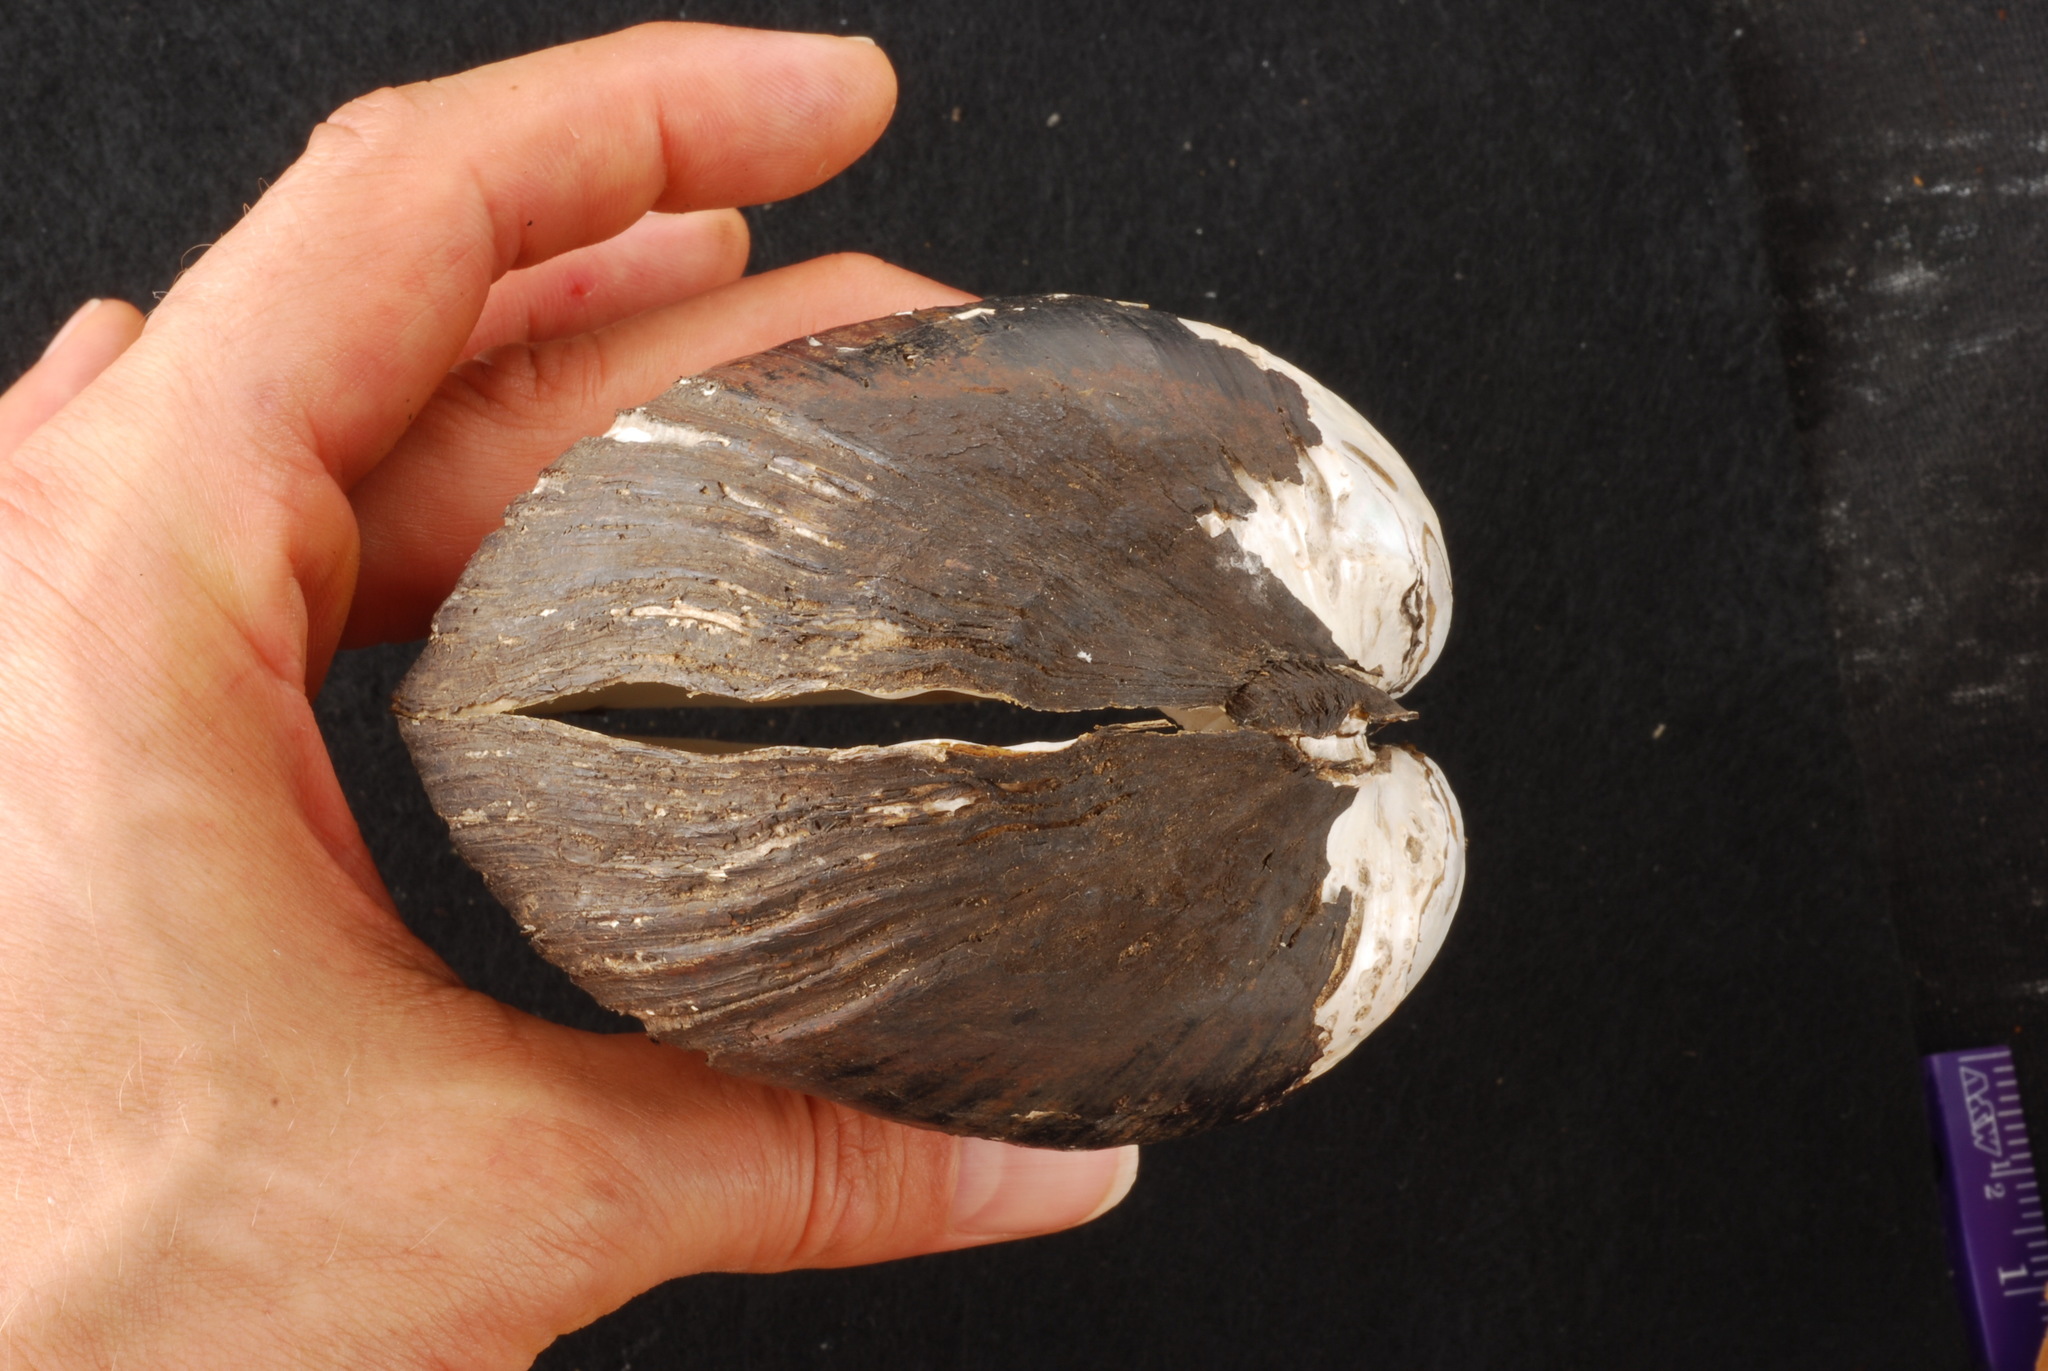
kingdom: Animalia
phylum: Mollusca
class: Bivalvia
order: Unionida
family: Unionidae
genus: Lampsilis
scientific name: Lampsilis satura
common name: Sandbank pocketbook
